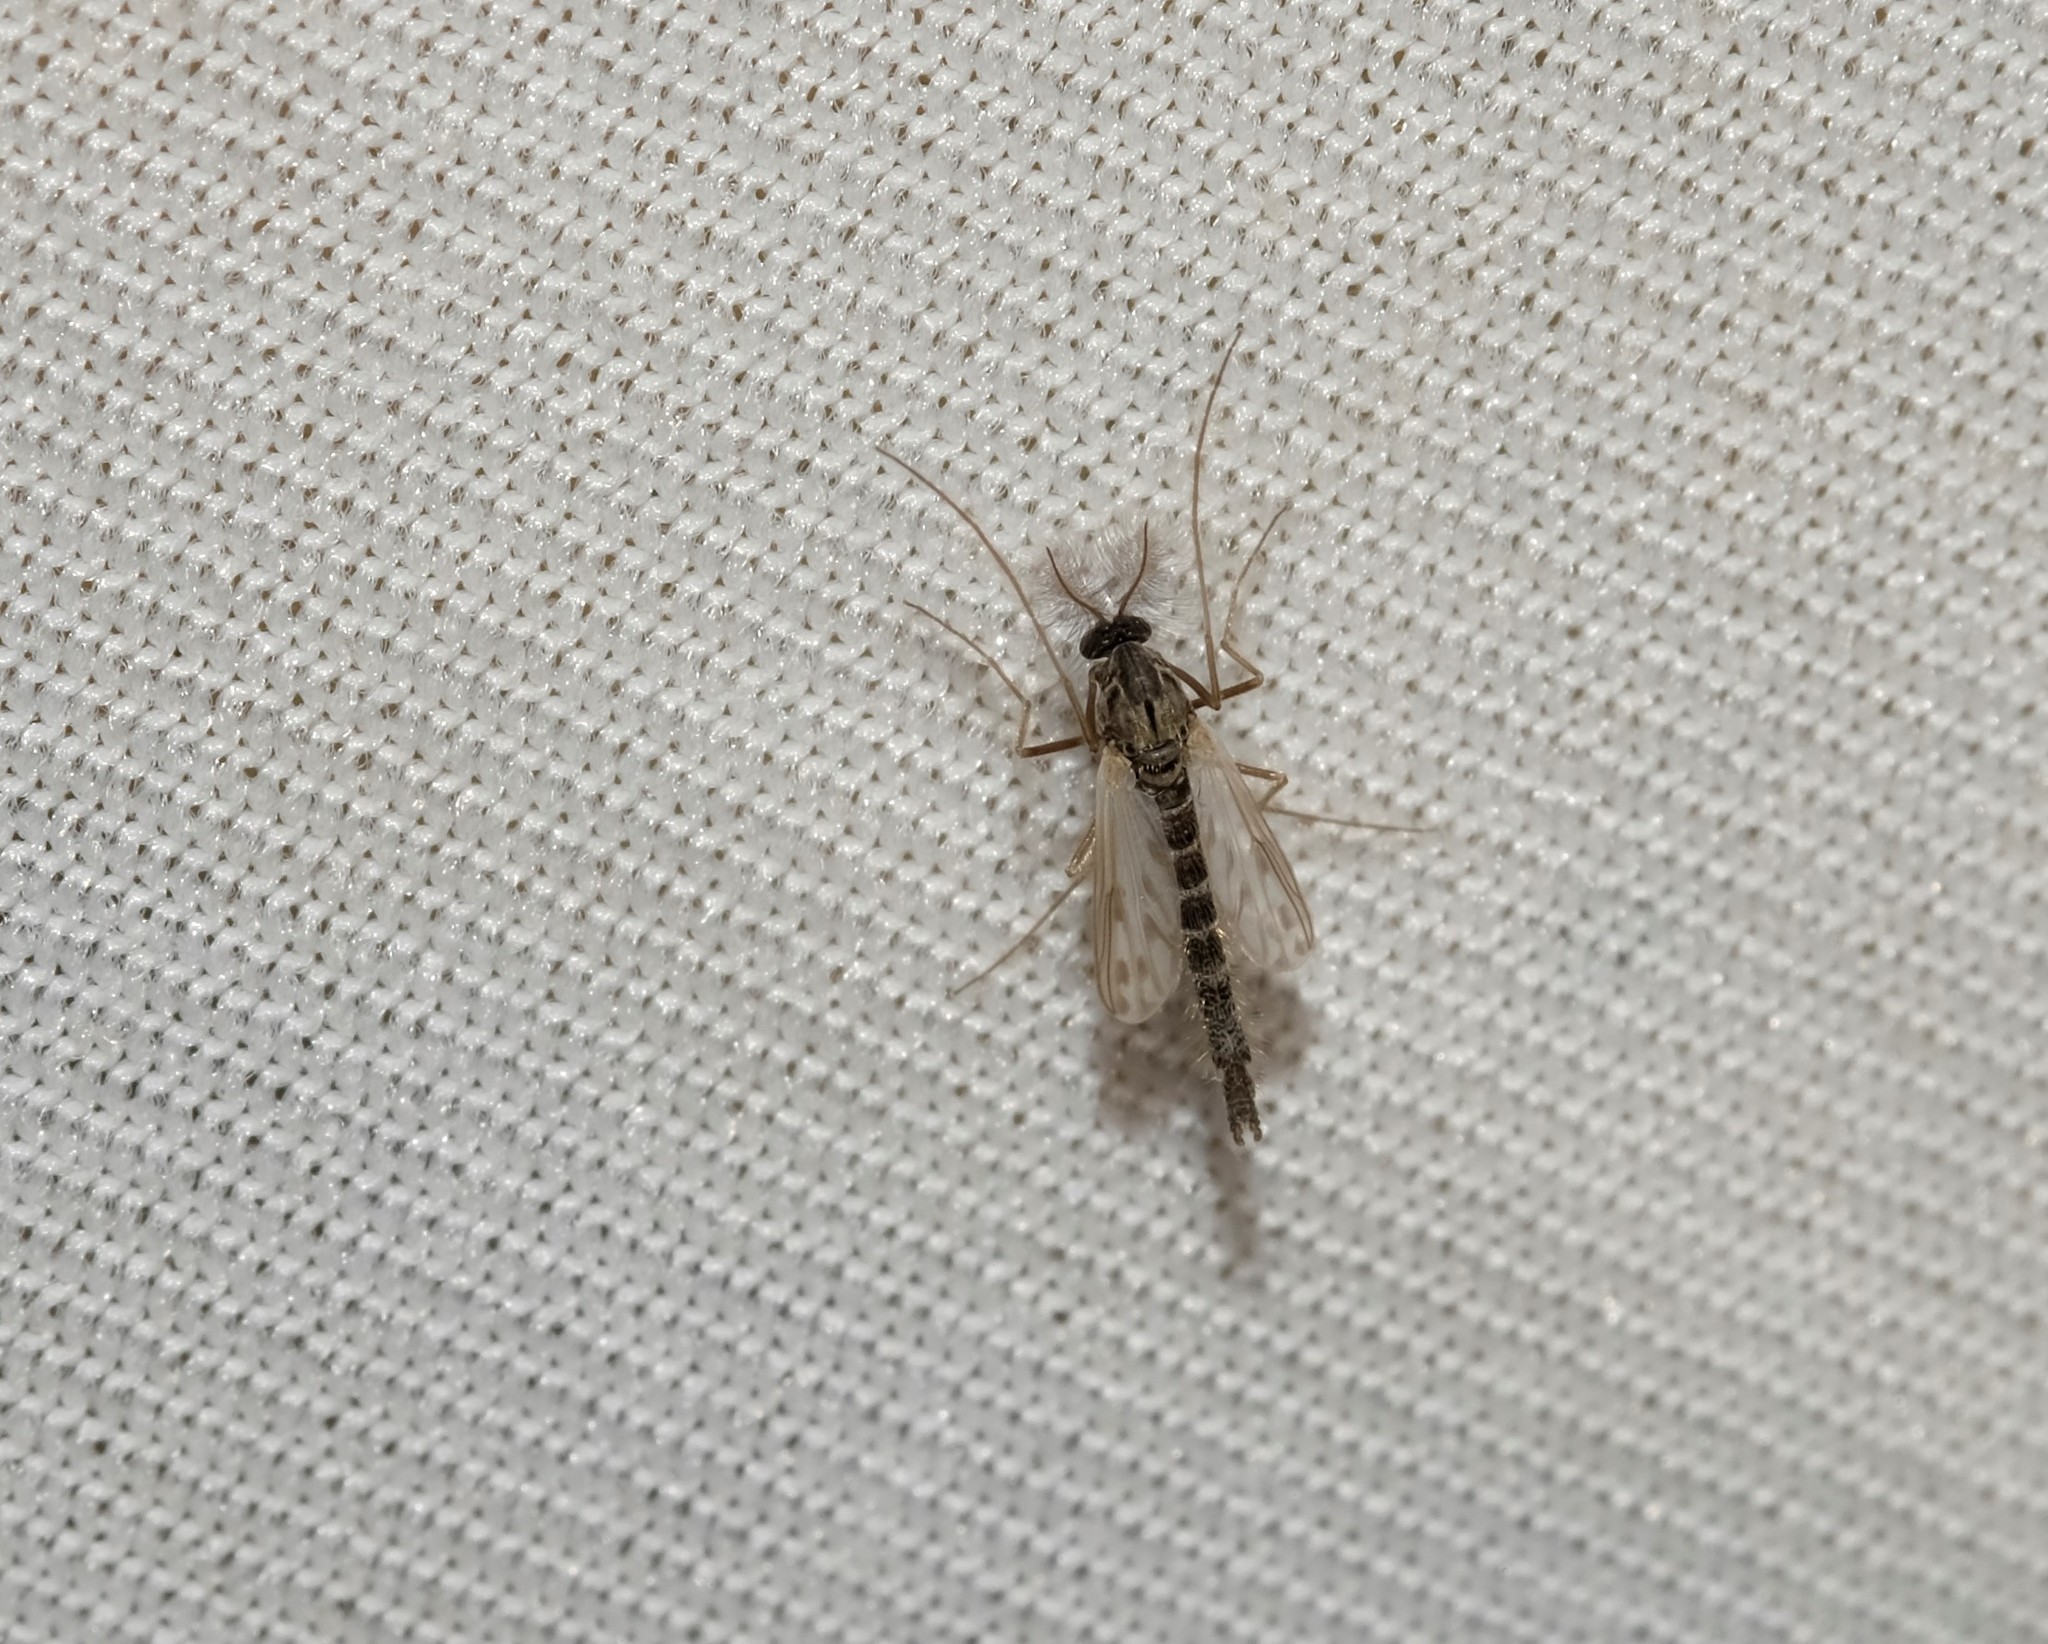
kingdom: Animalia
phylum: Arthropoda
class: Insecta
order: Diptera
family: Chironomidae
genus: Polypedilum
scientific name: Polypedilum nubifer
